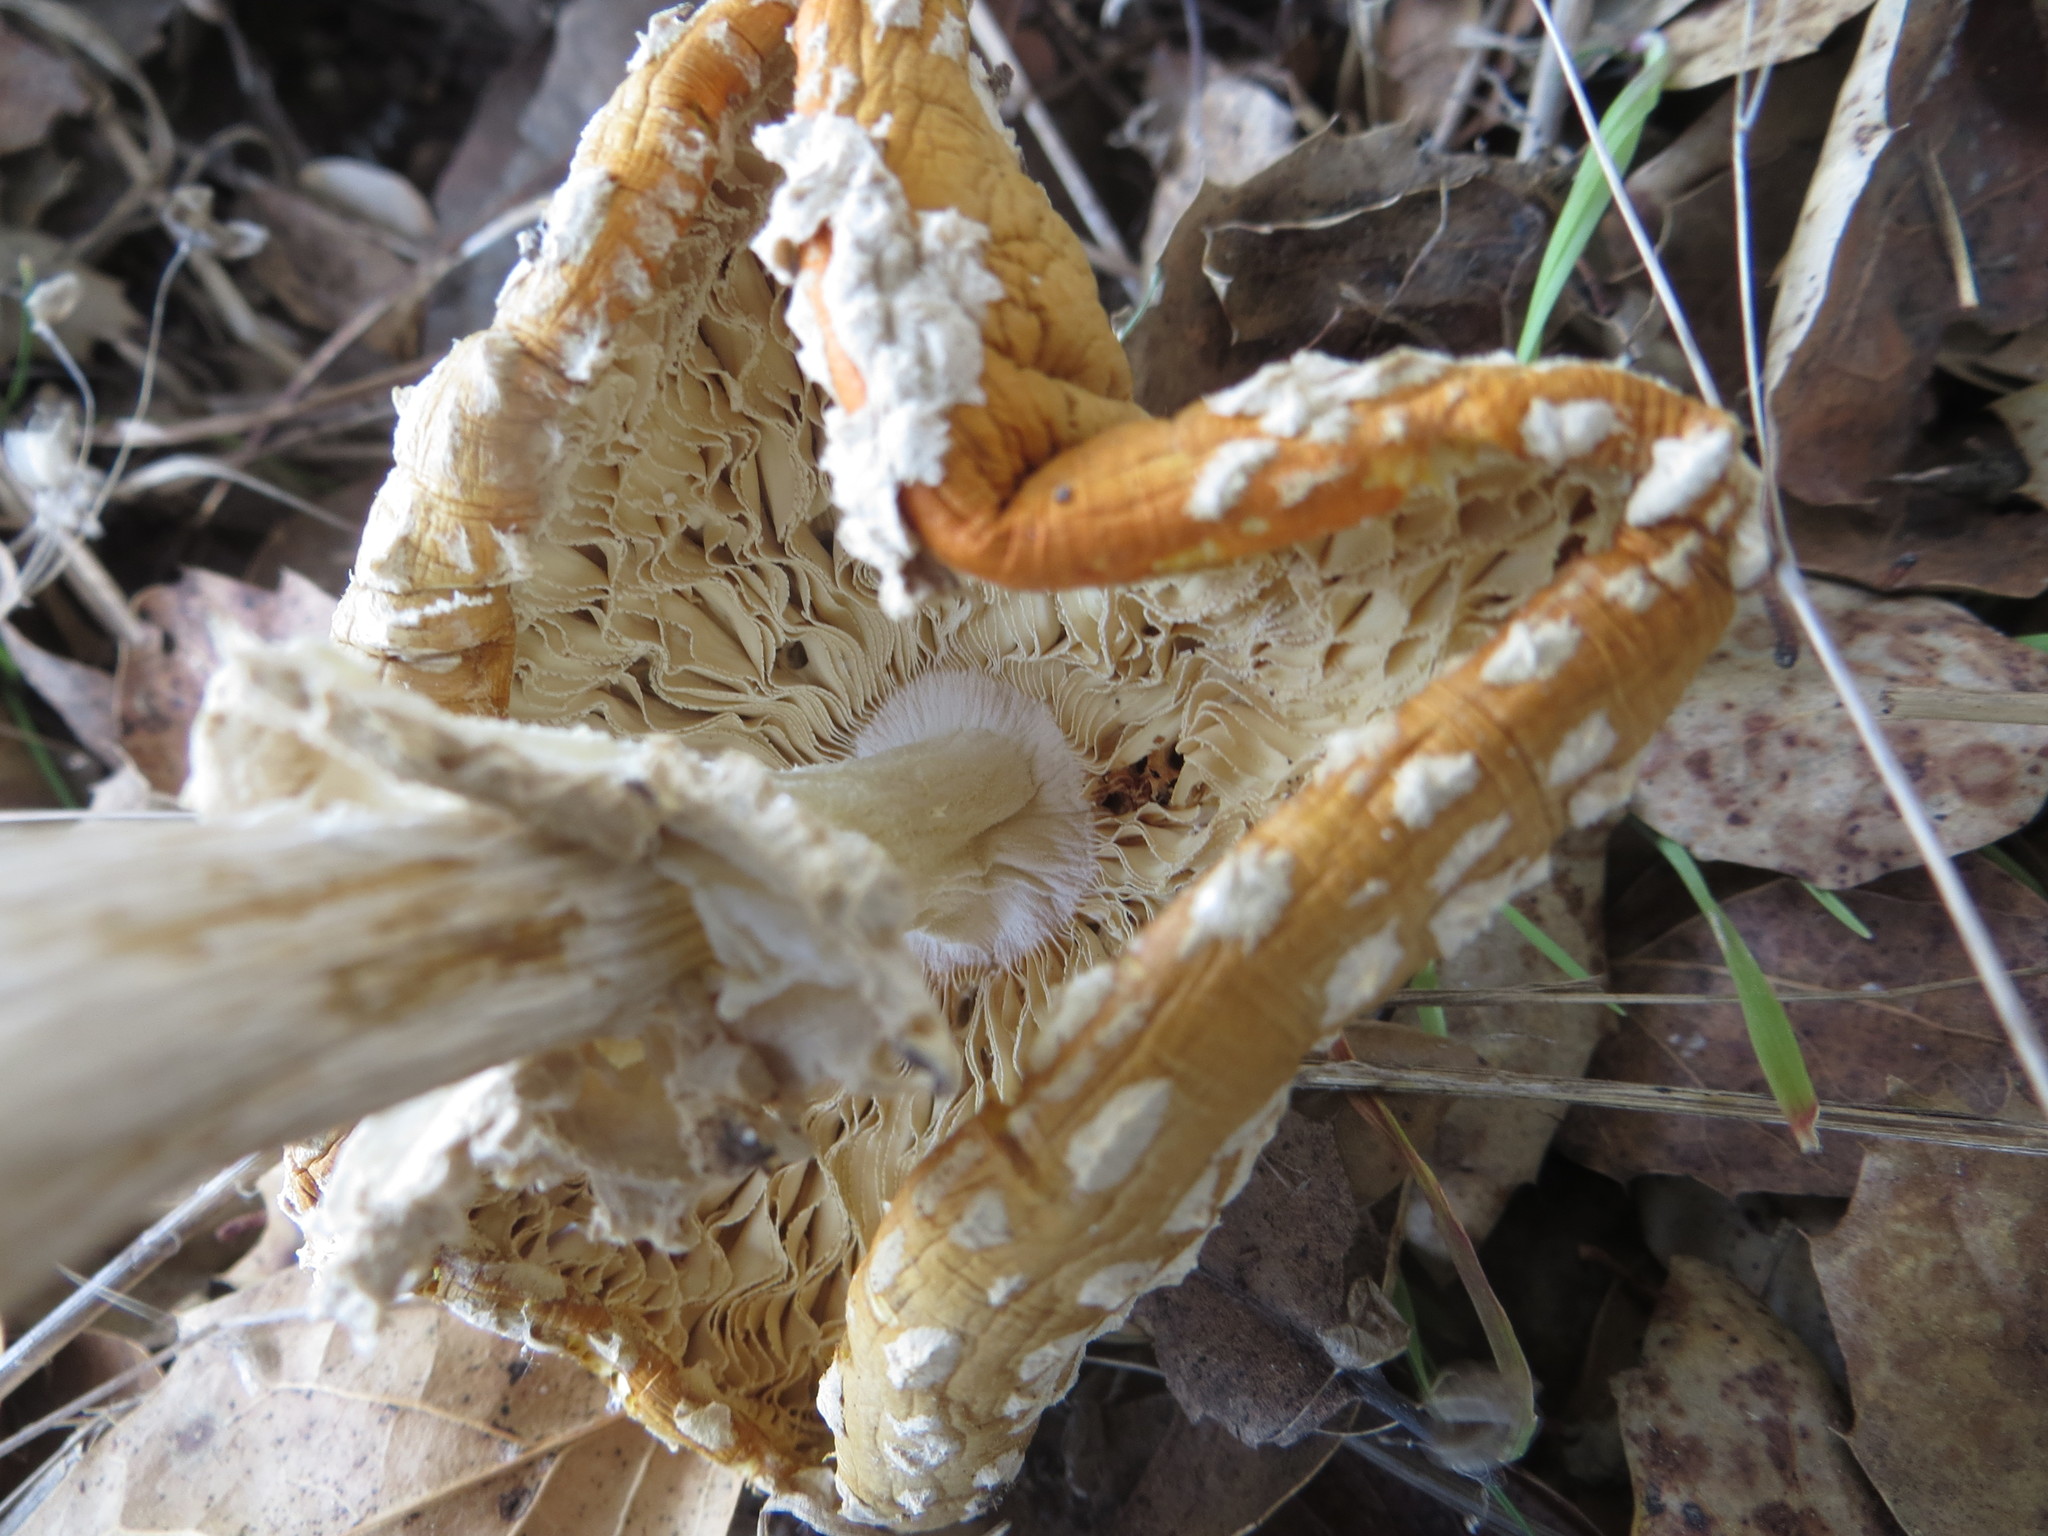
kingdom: Fungi
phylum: Basidiomycota
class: Agaricomycetes
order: Agaricales
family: Amanitaceae
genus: Amanita
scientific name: Amanita muscaria
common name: Fly agaric
